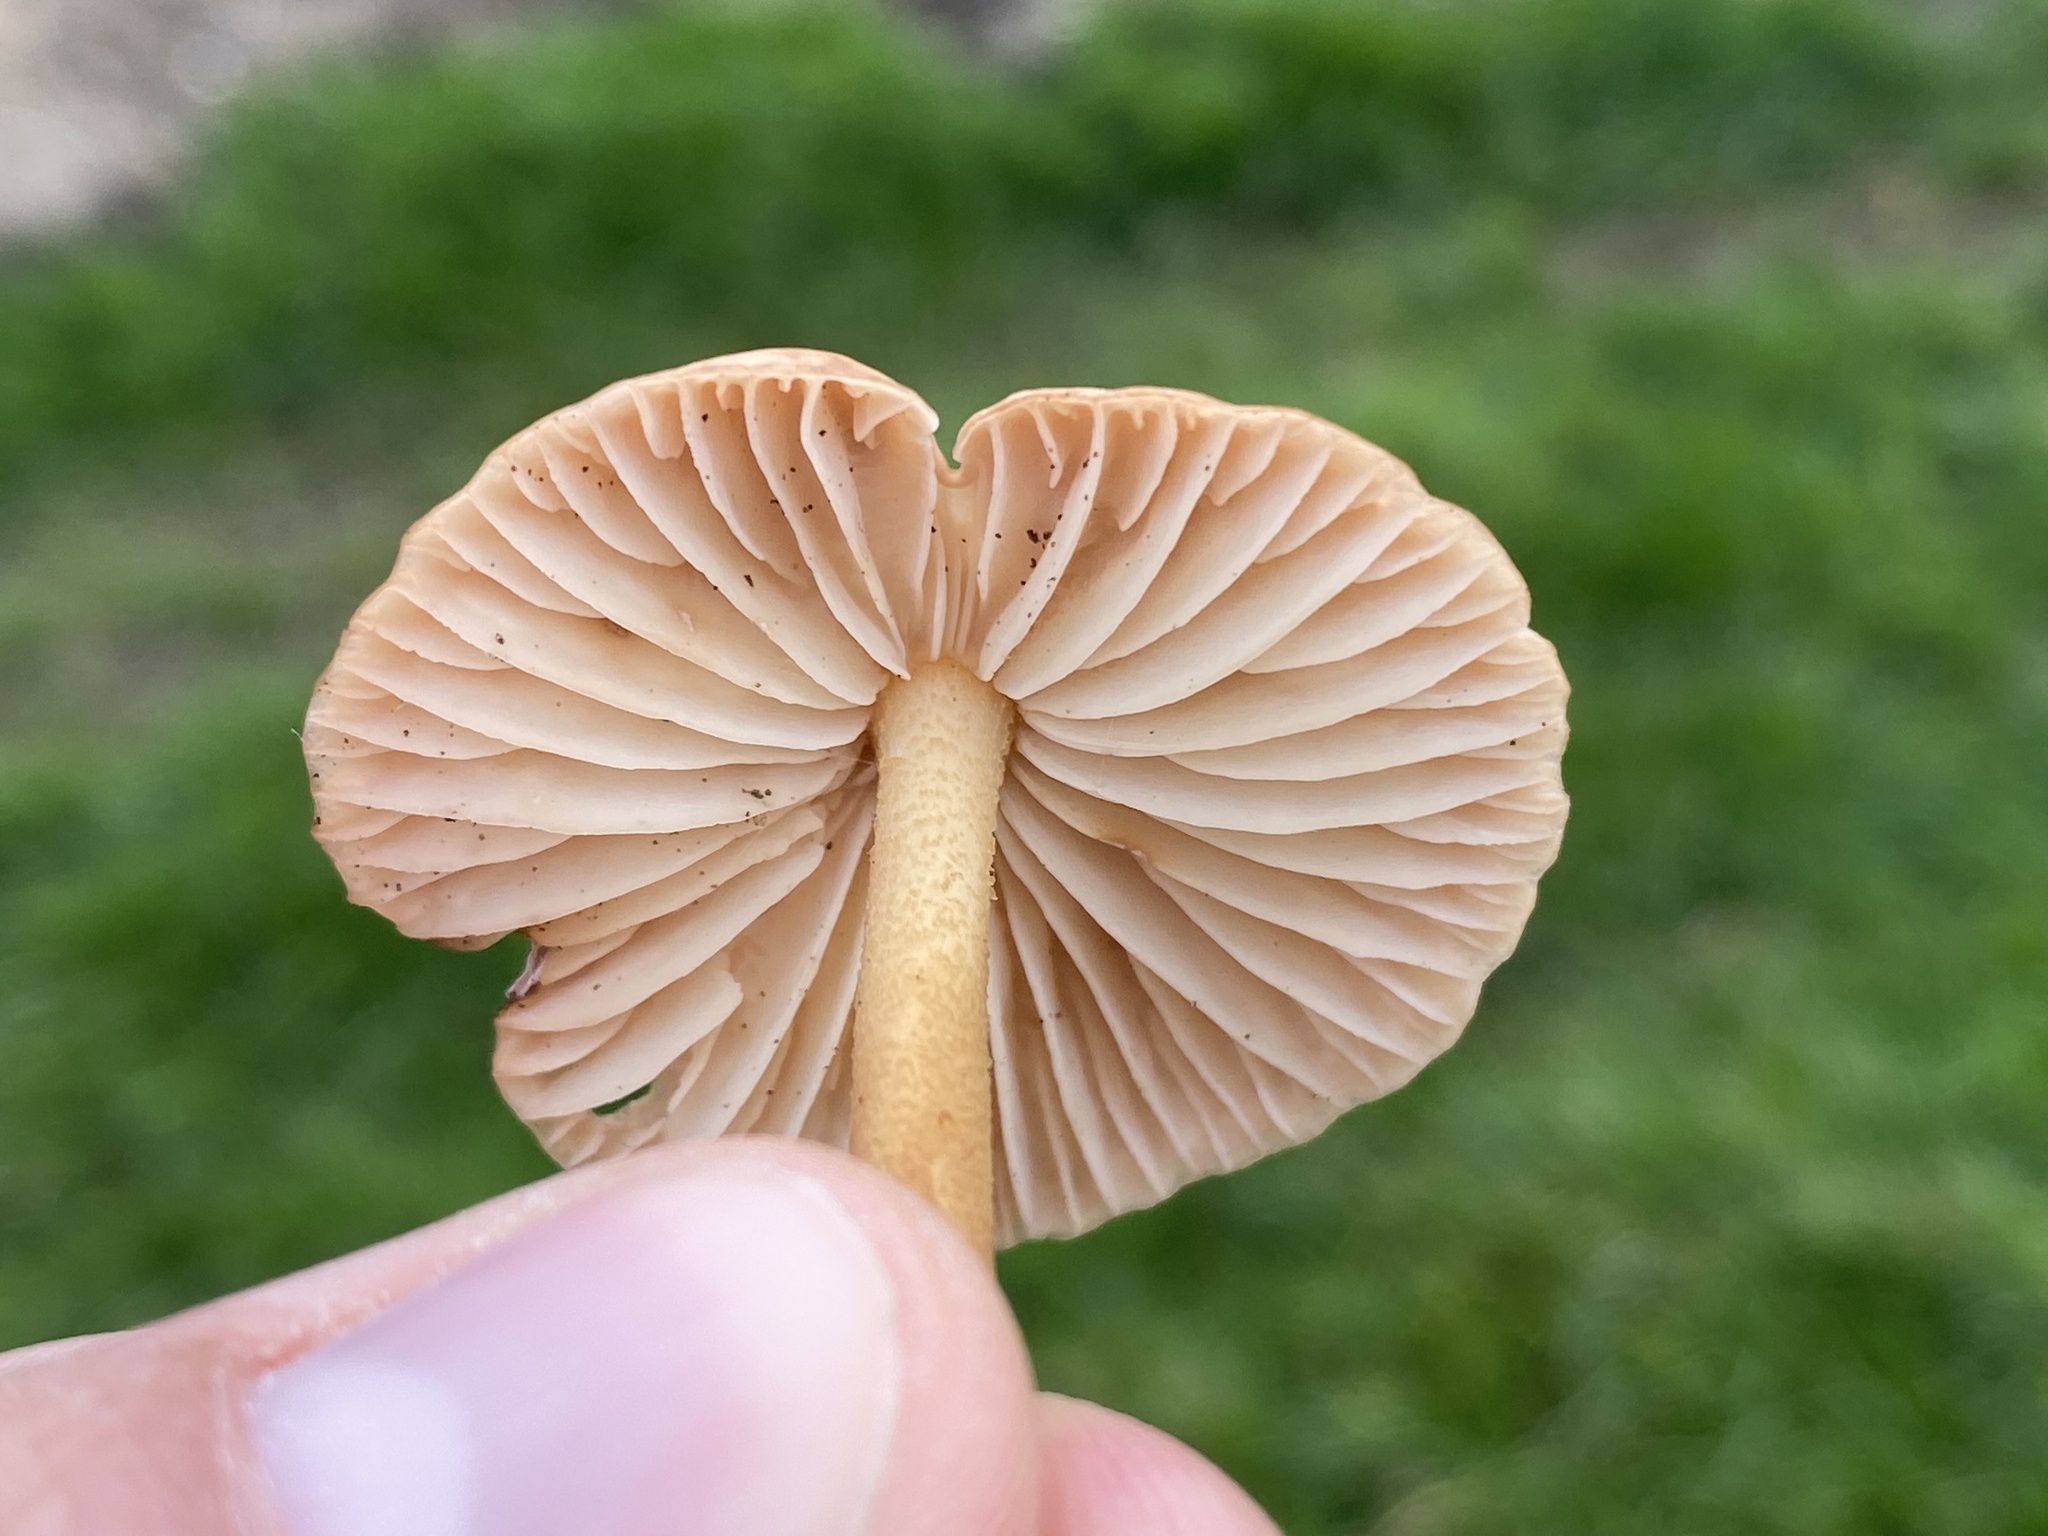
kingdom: Fungi
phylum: Basidiomycota
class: Agaricomycetes
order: Agaricales
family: Marasmiaceae
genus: Marasmius
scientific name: Marasmius oreades
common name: Fairy ring champignon
